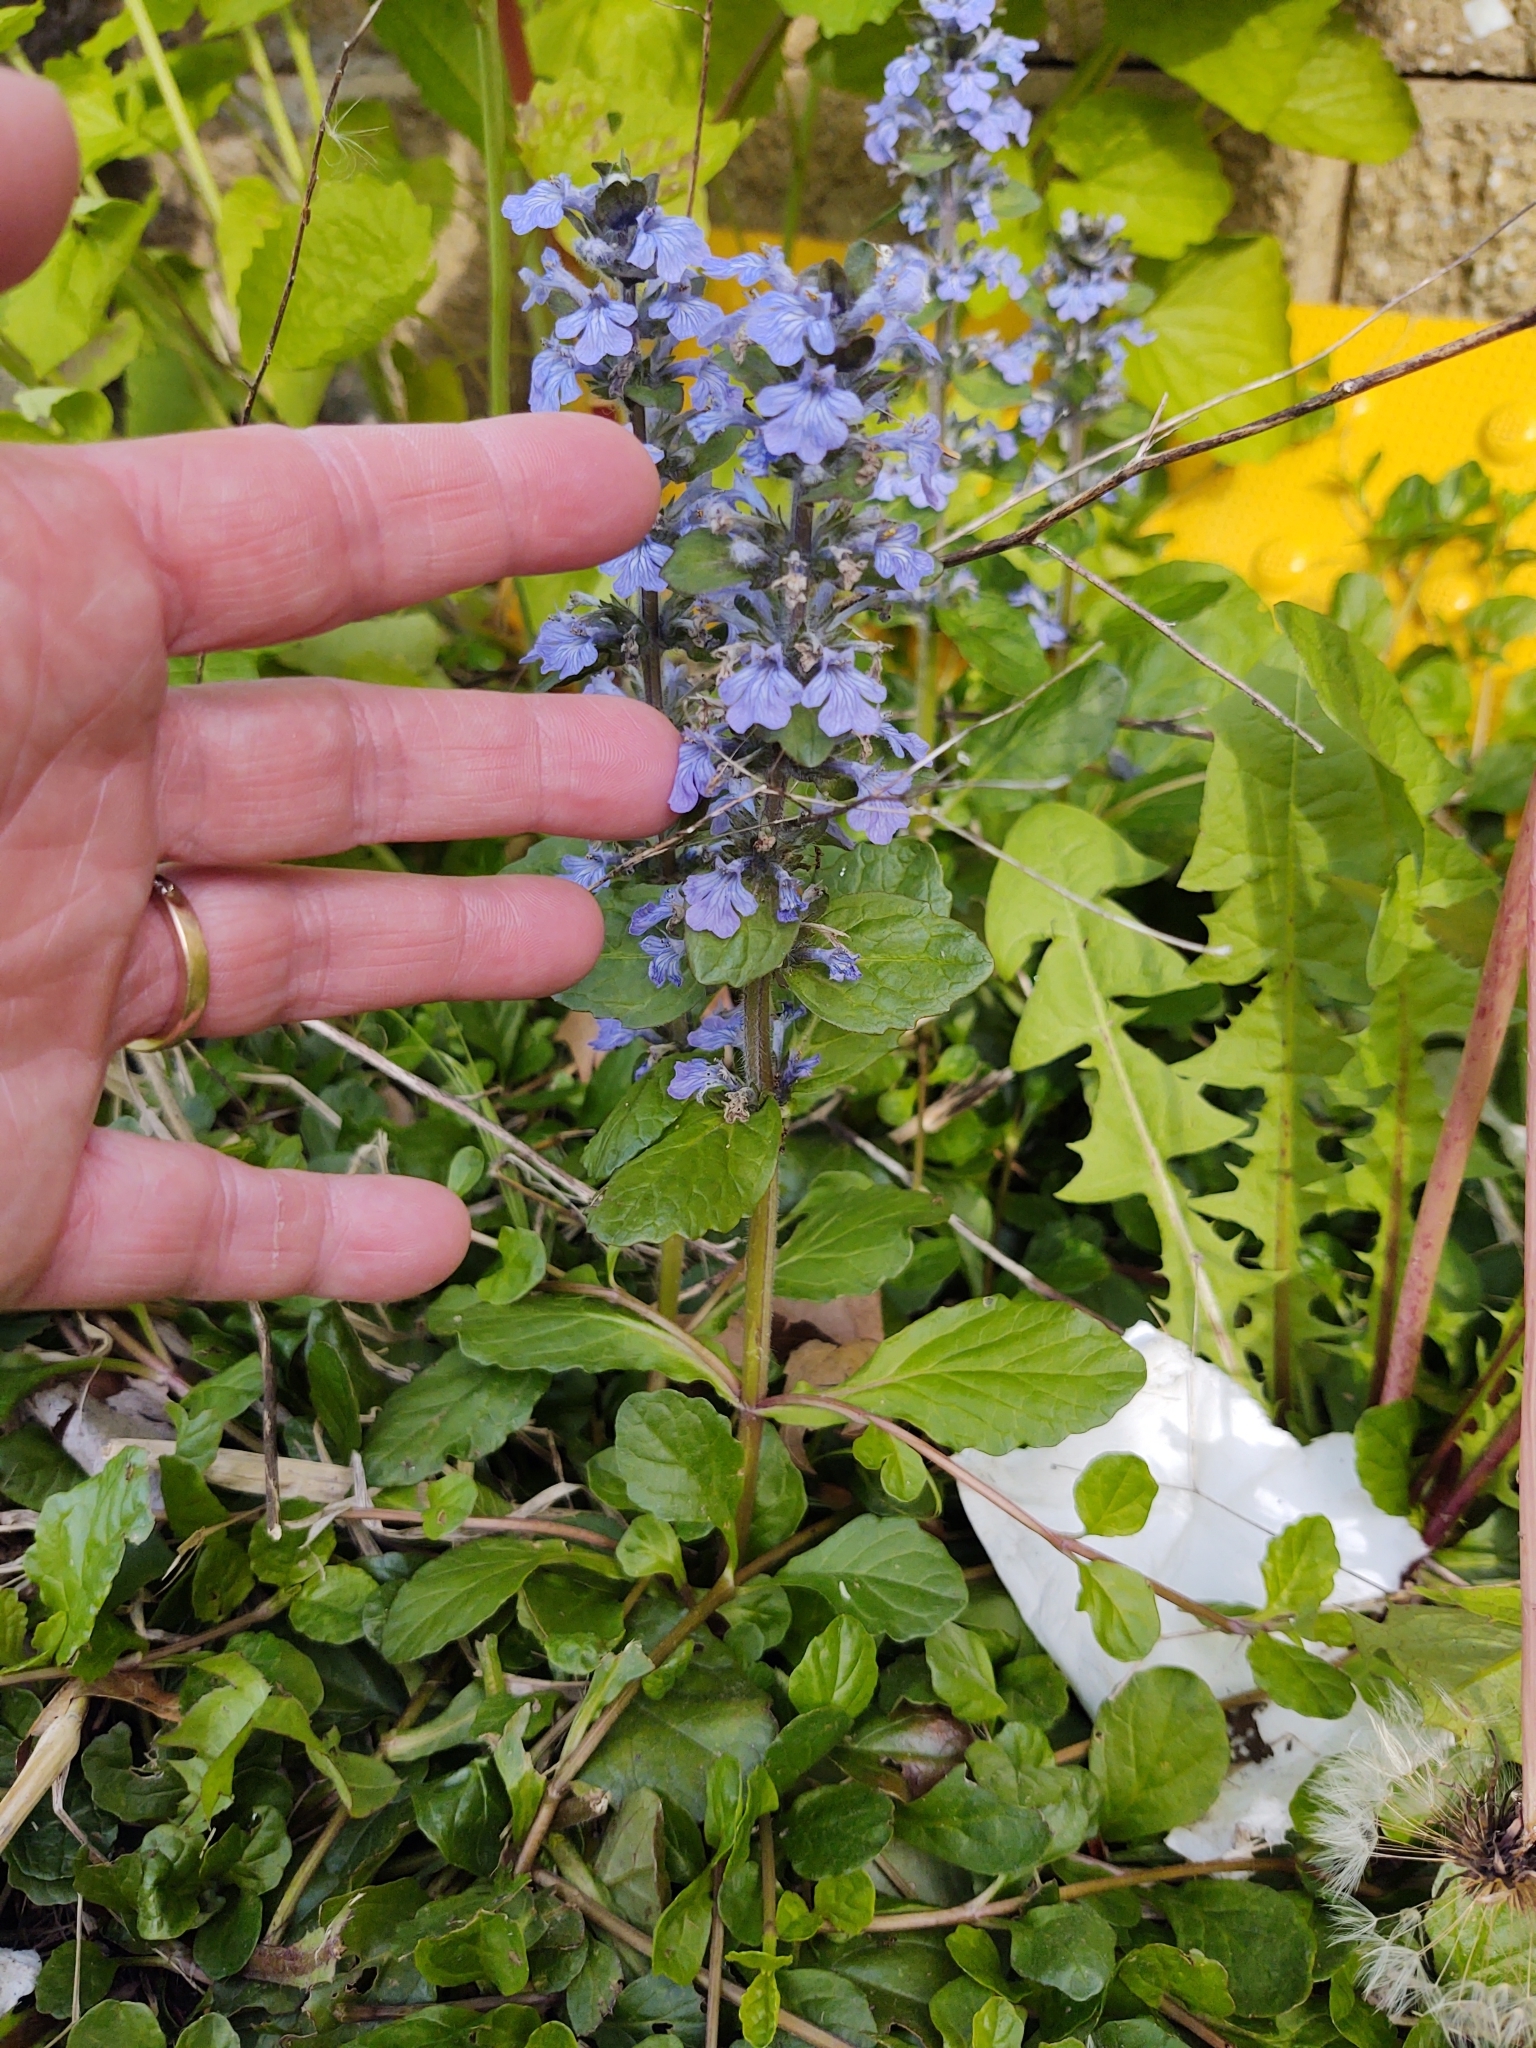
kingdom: Plantae
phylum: Tracheophyta
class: Magnoliopsida
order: Lamiales
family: Lamiaceae
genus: Ajuga
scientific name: Ajuga reptans
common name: Bugle
